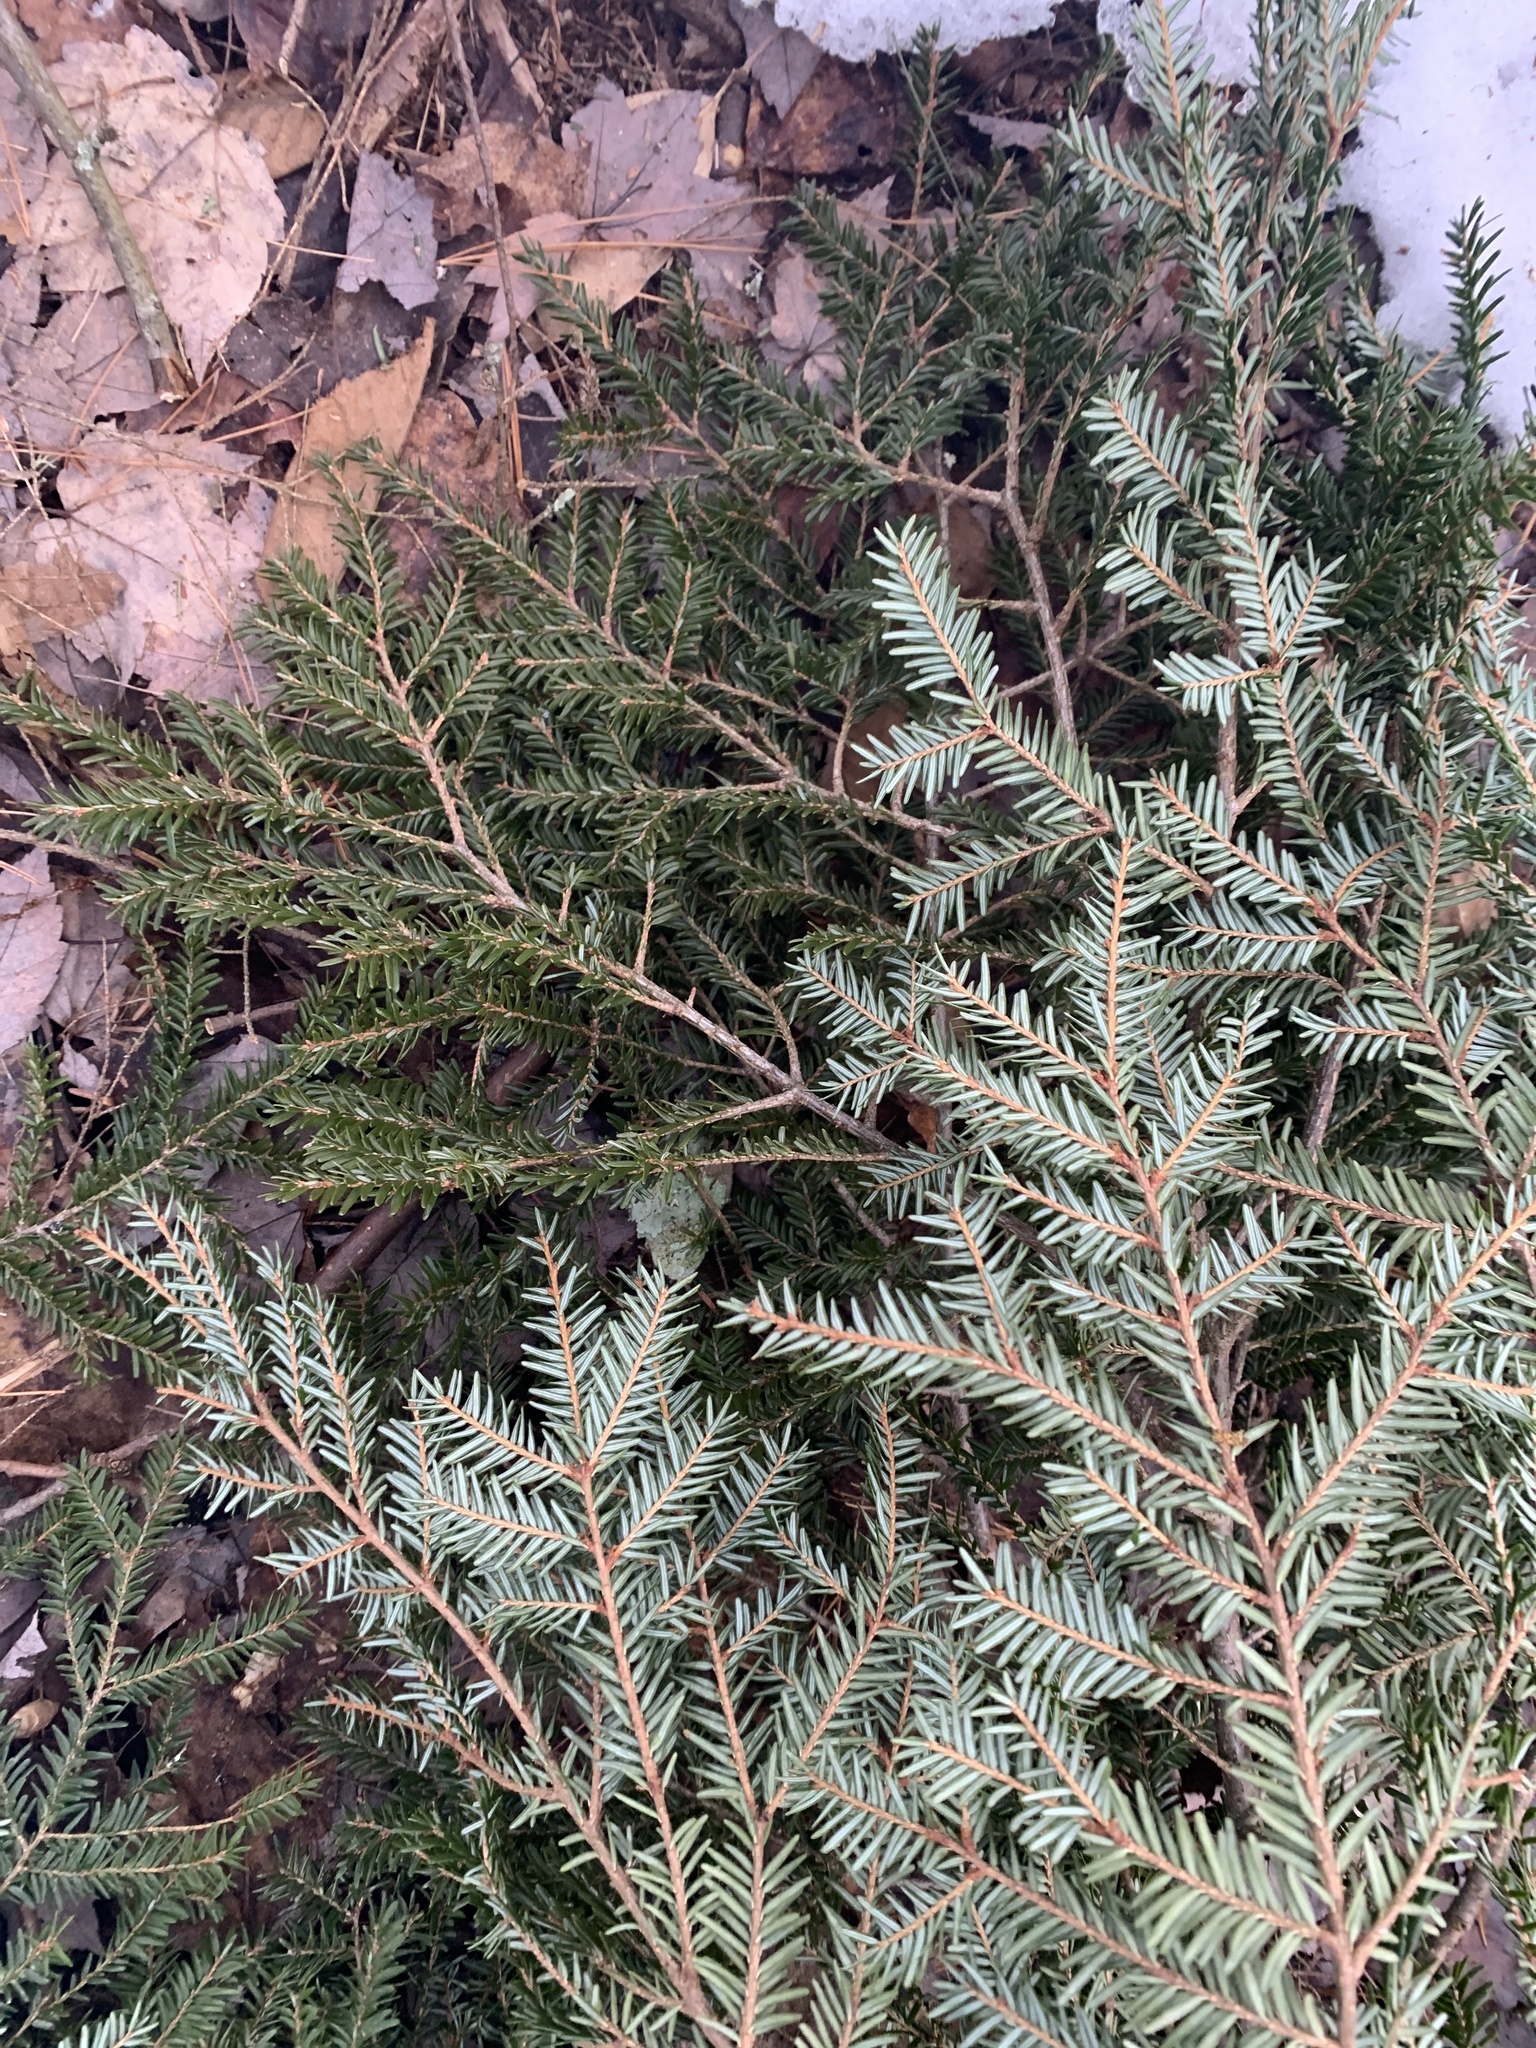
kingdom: Plantae
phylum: Tracheophyta
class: Pinopsida
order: Pinales
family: Pinaceae
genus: Tsuga
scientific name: Tsuga canadensis
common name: Eastern hemlock
